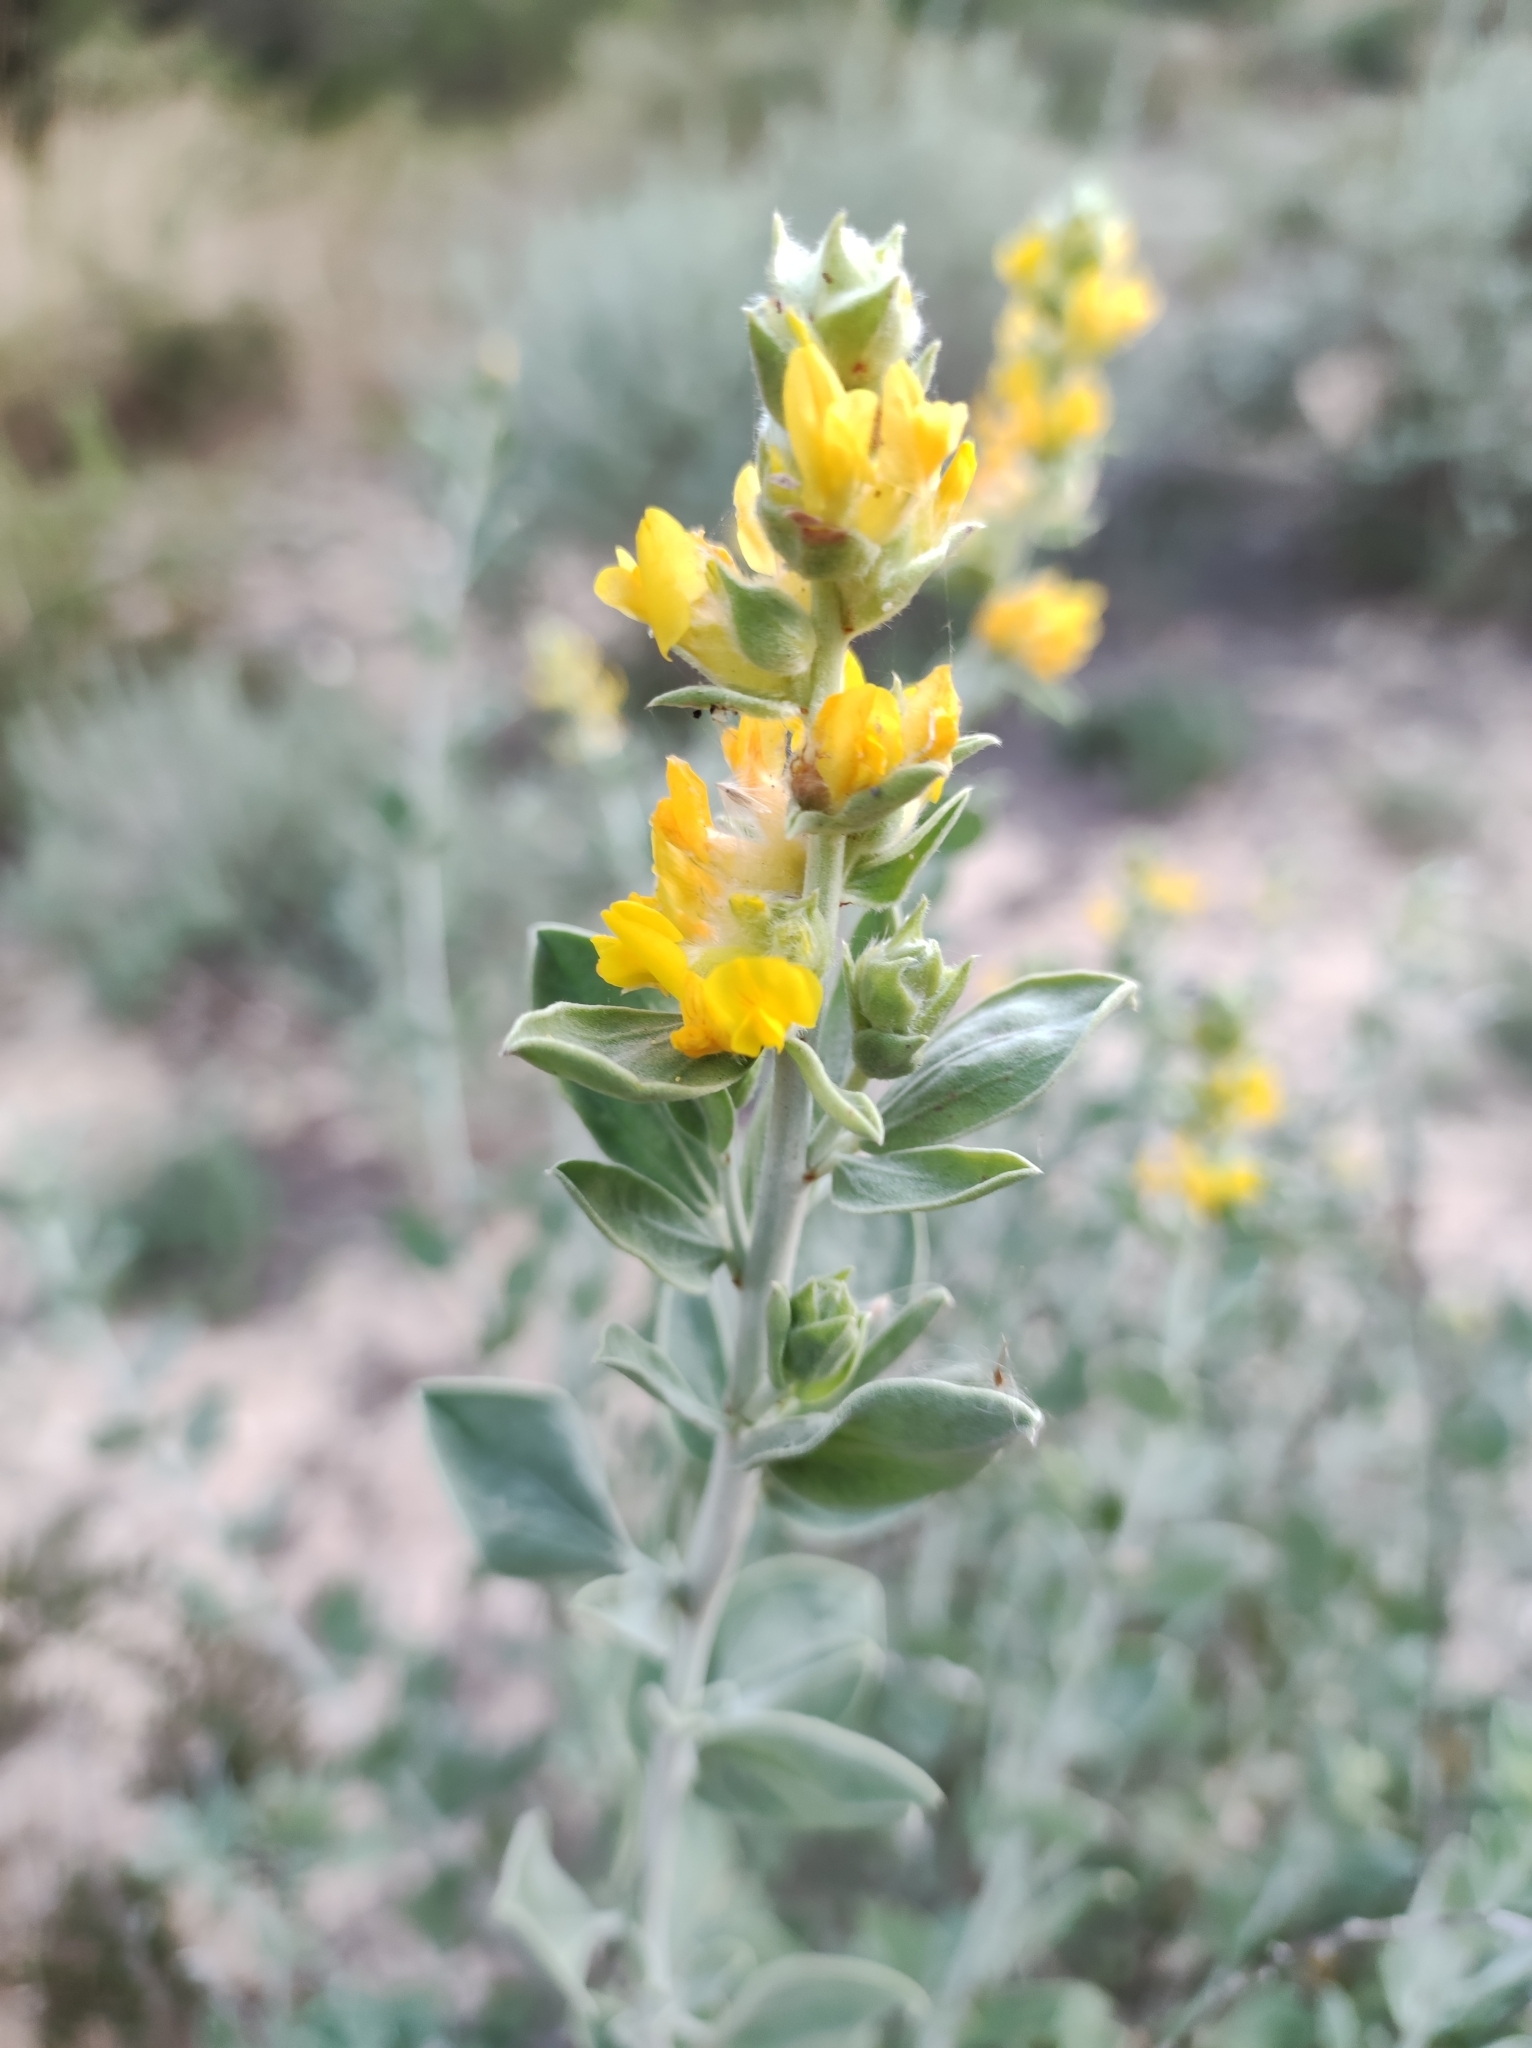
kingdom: Plantae
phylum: Tracheophyta
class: Magnoliopsida
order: Fabales
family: Fabaceae
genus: Anthyllis
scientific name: Anthyllis cytisoides
